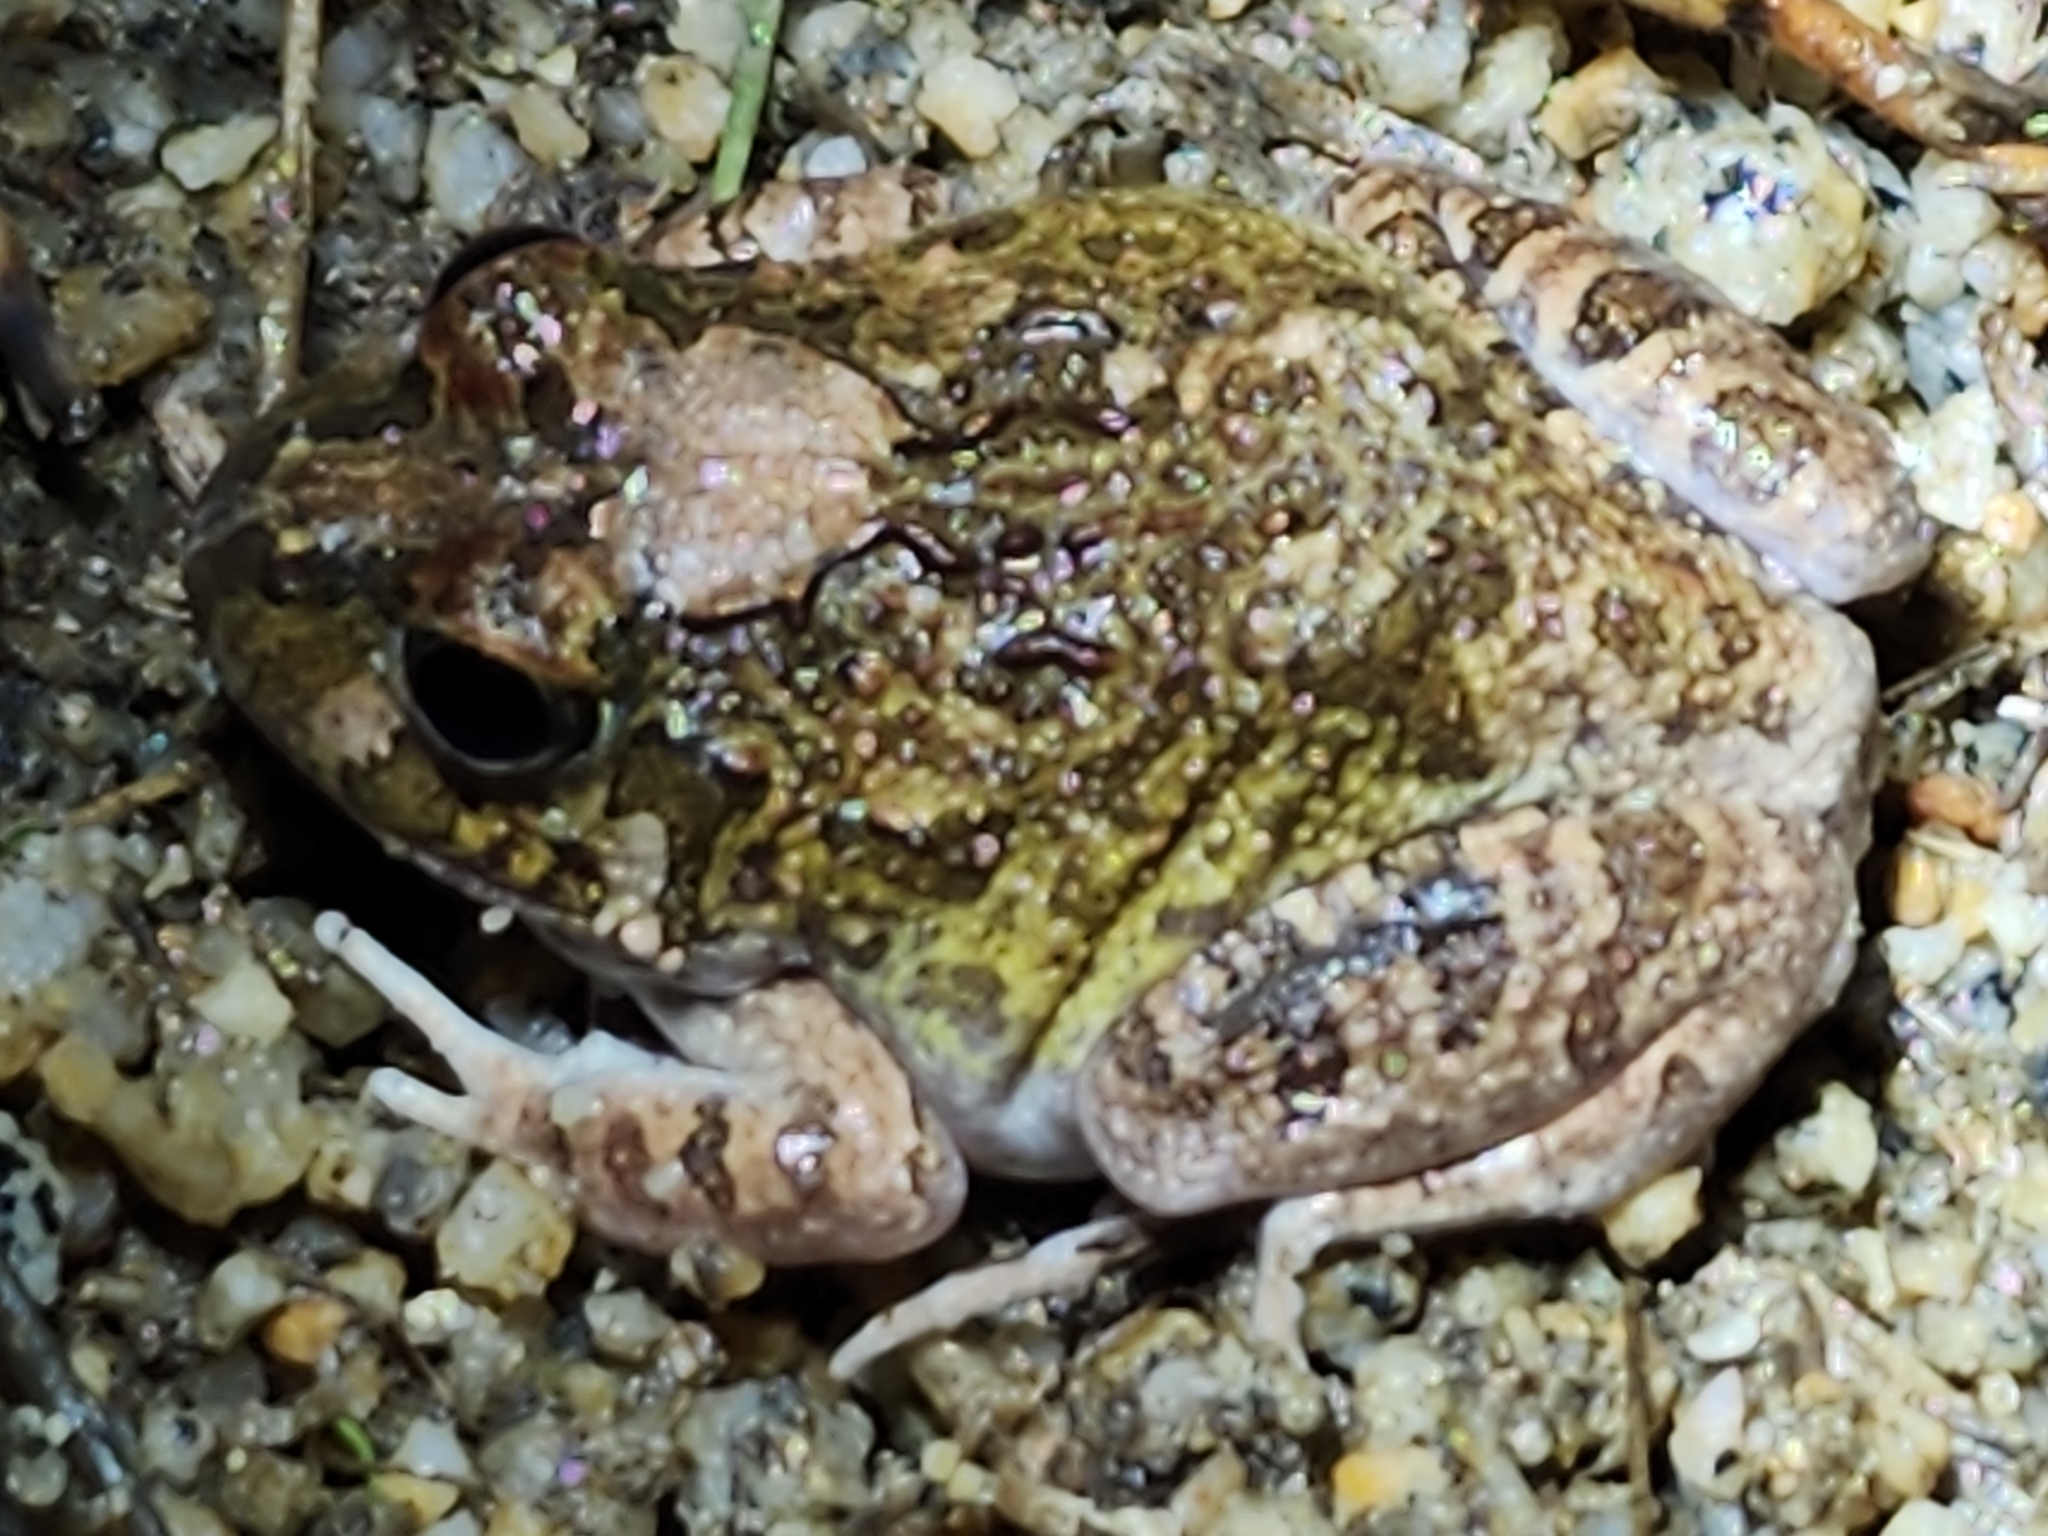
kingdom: Animalia
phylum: Chordata
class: Amphibia
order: Anura
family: Limnodynastidae
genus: Platyplectrum
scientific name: Platyplectrum ornatum
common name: Ornate burrowing frog
